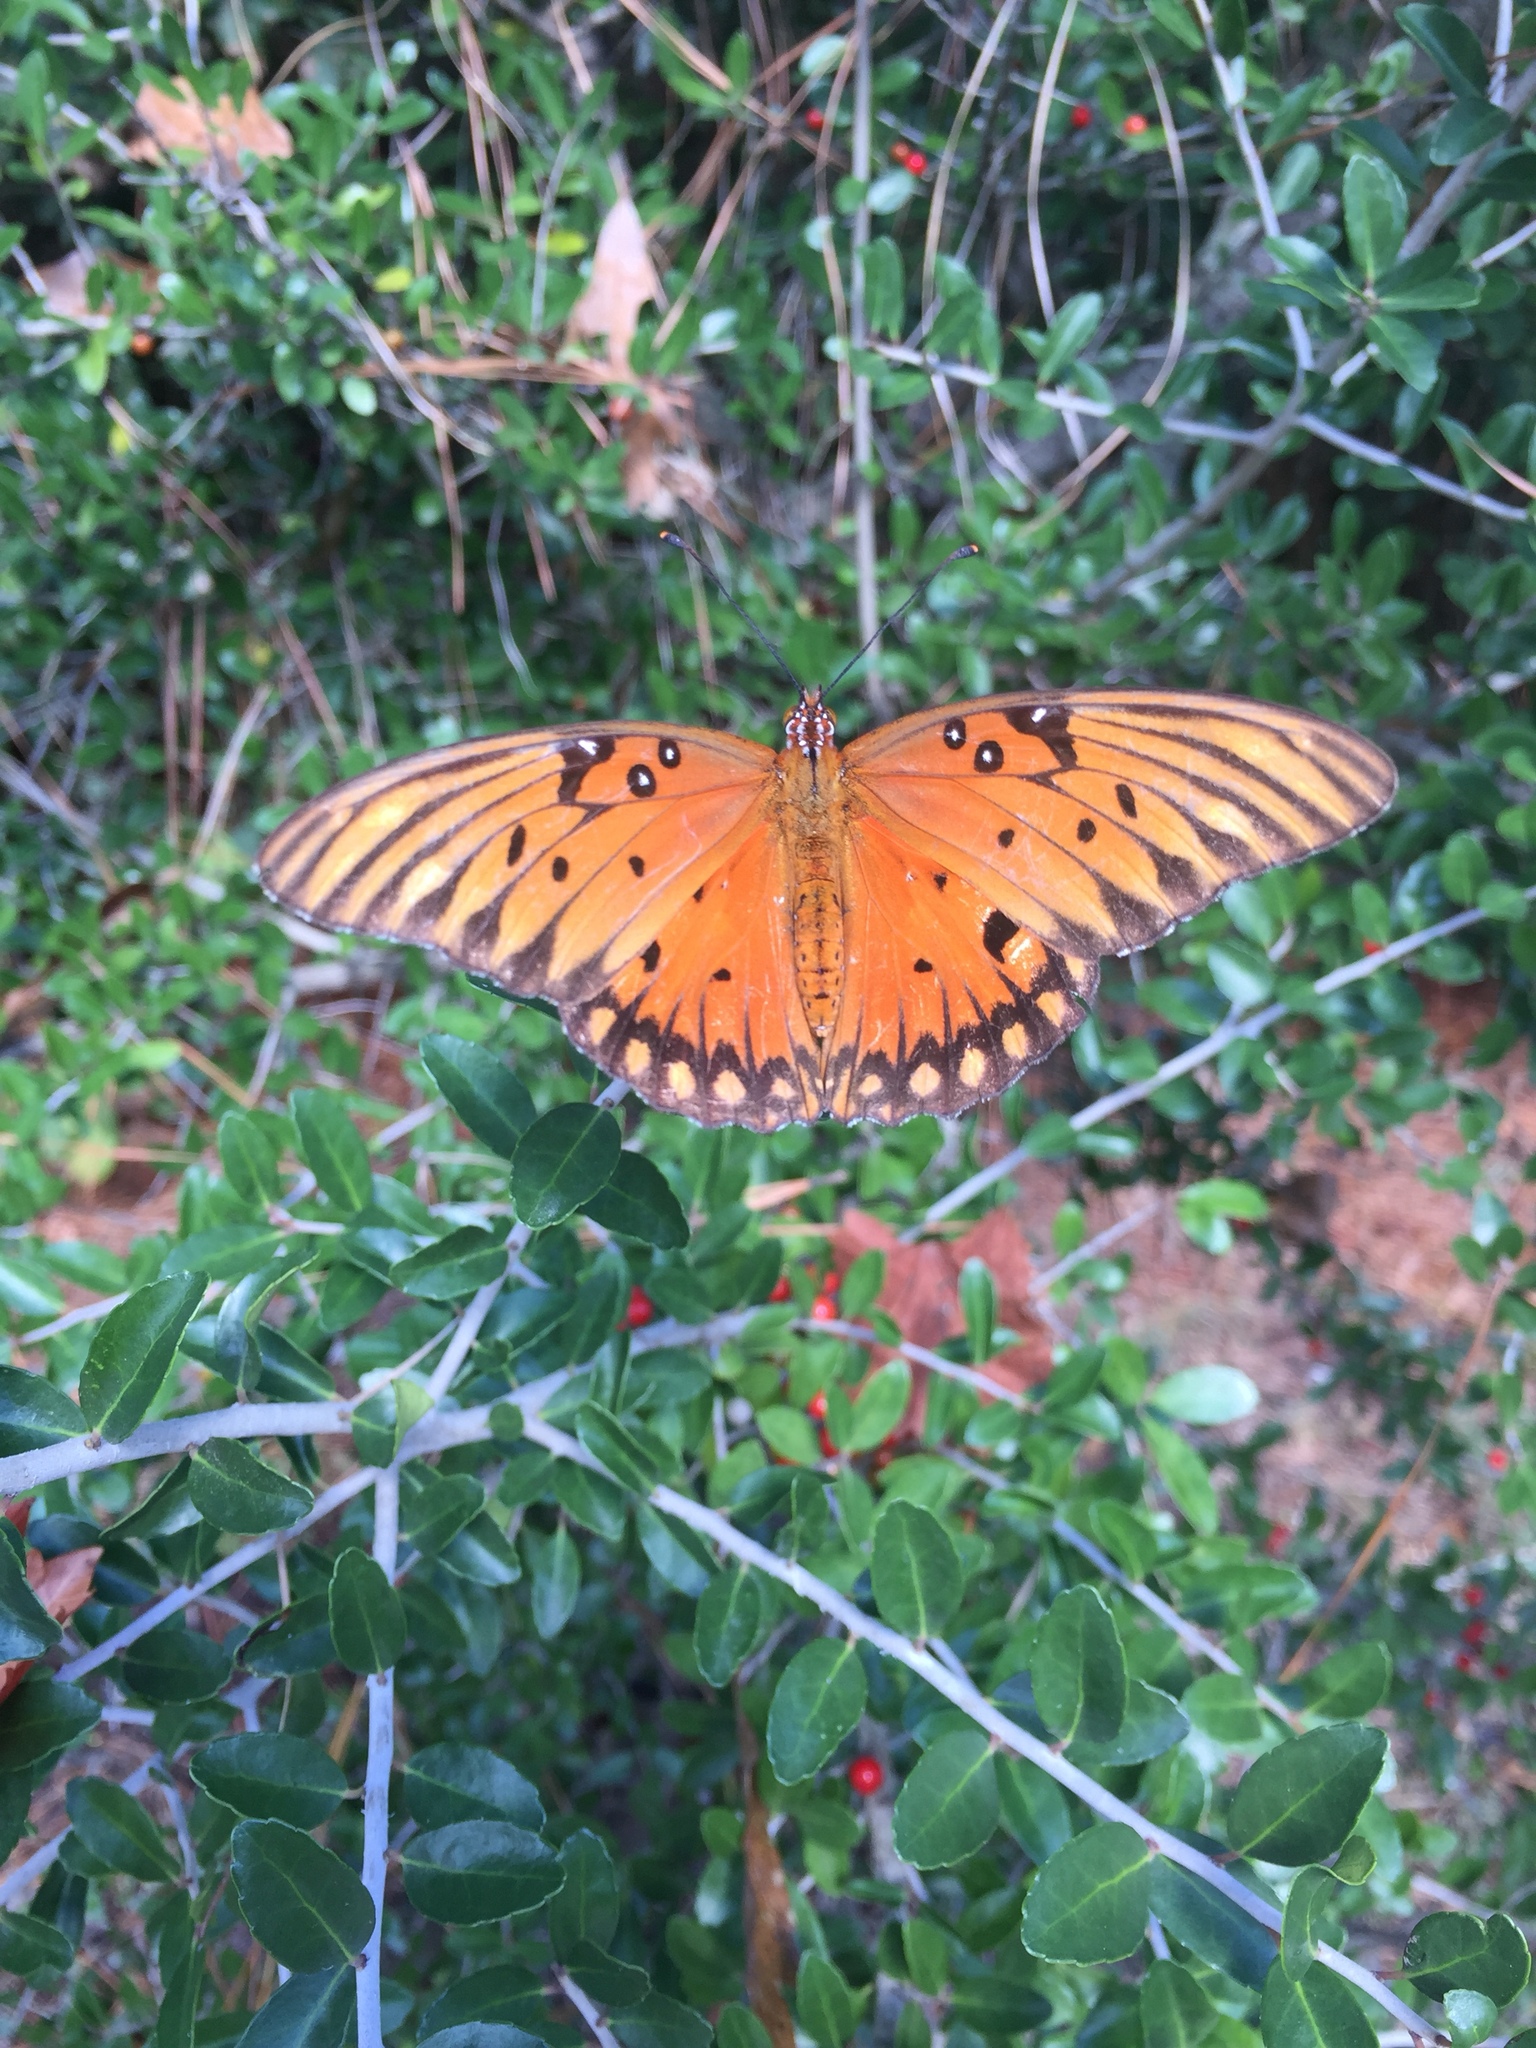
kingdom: Animalia
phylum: Arthropoda
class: Insecta
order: Lepidoptera
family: Nymphalidae
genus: Dione
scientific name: Dione vanillae
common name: Gulf fritillary
